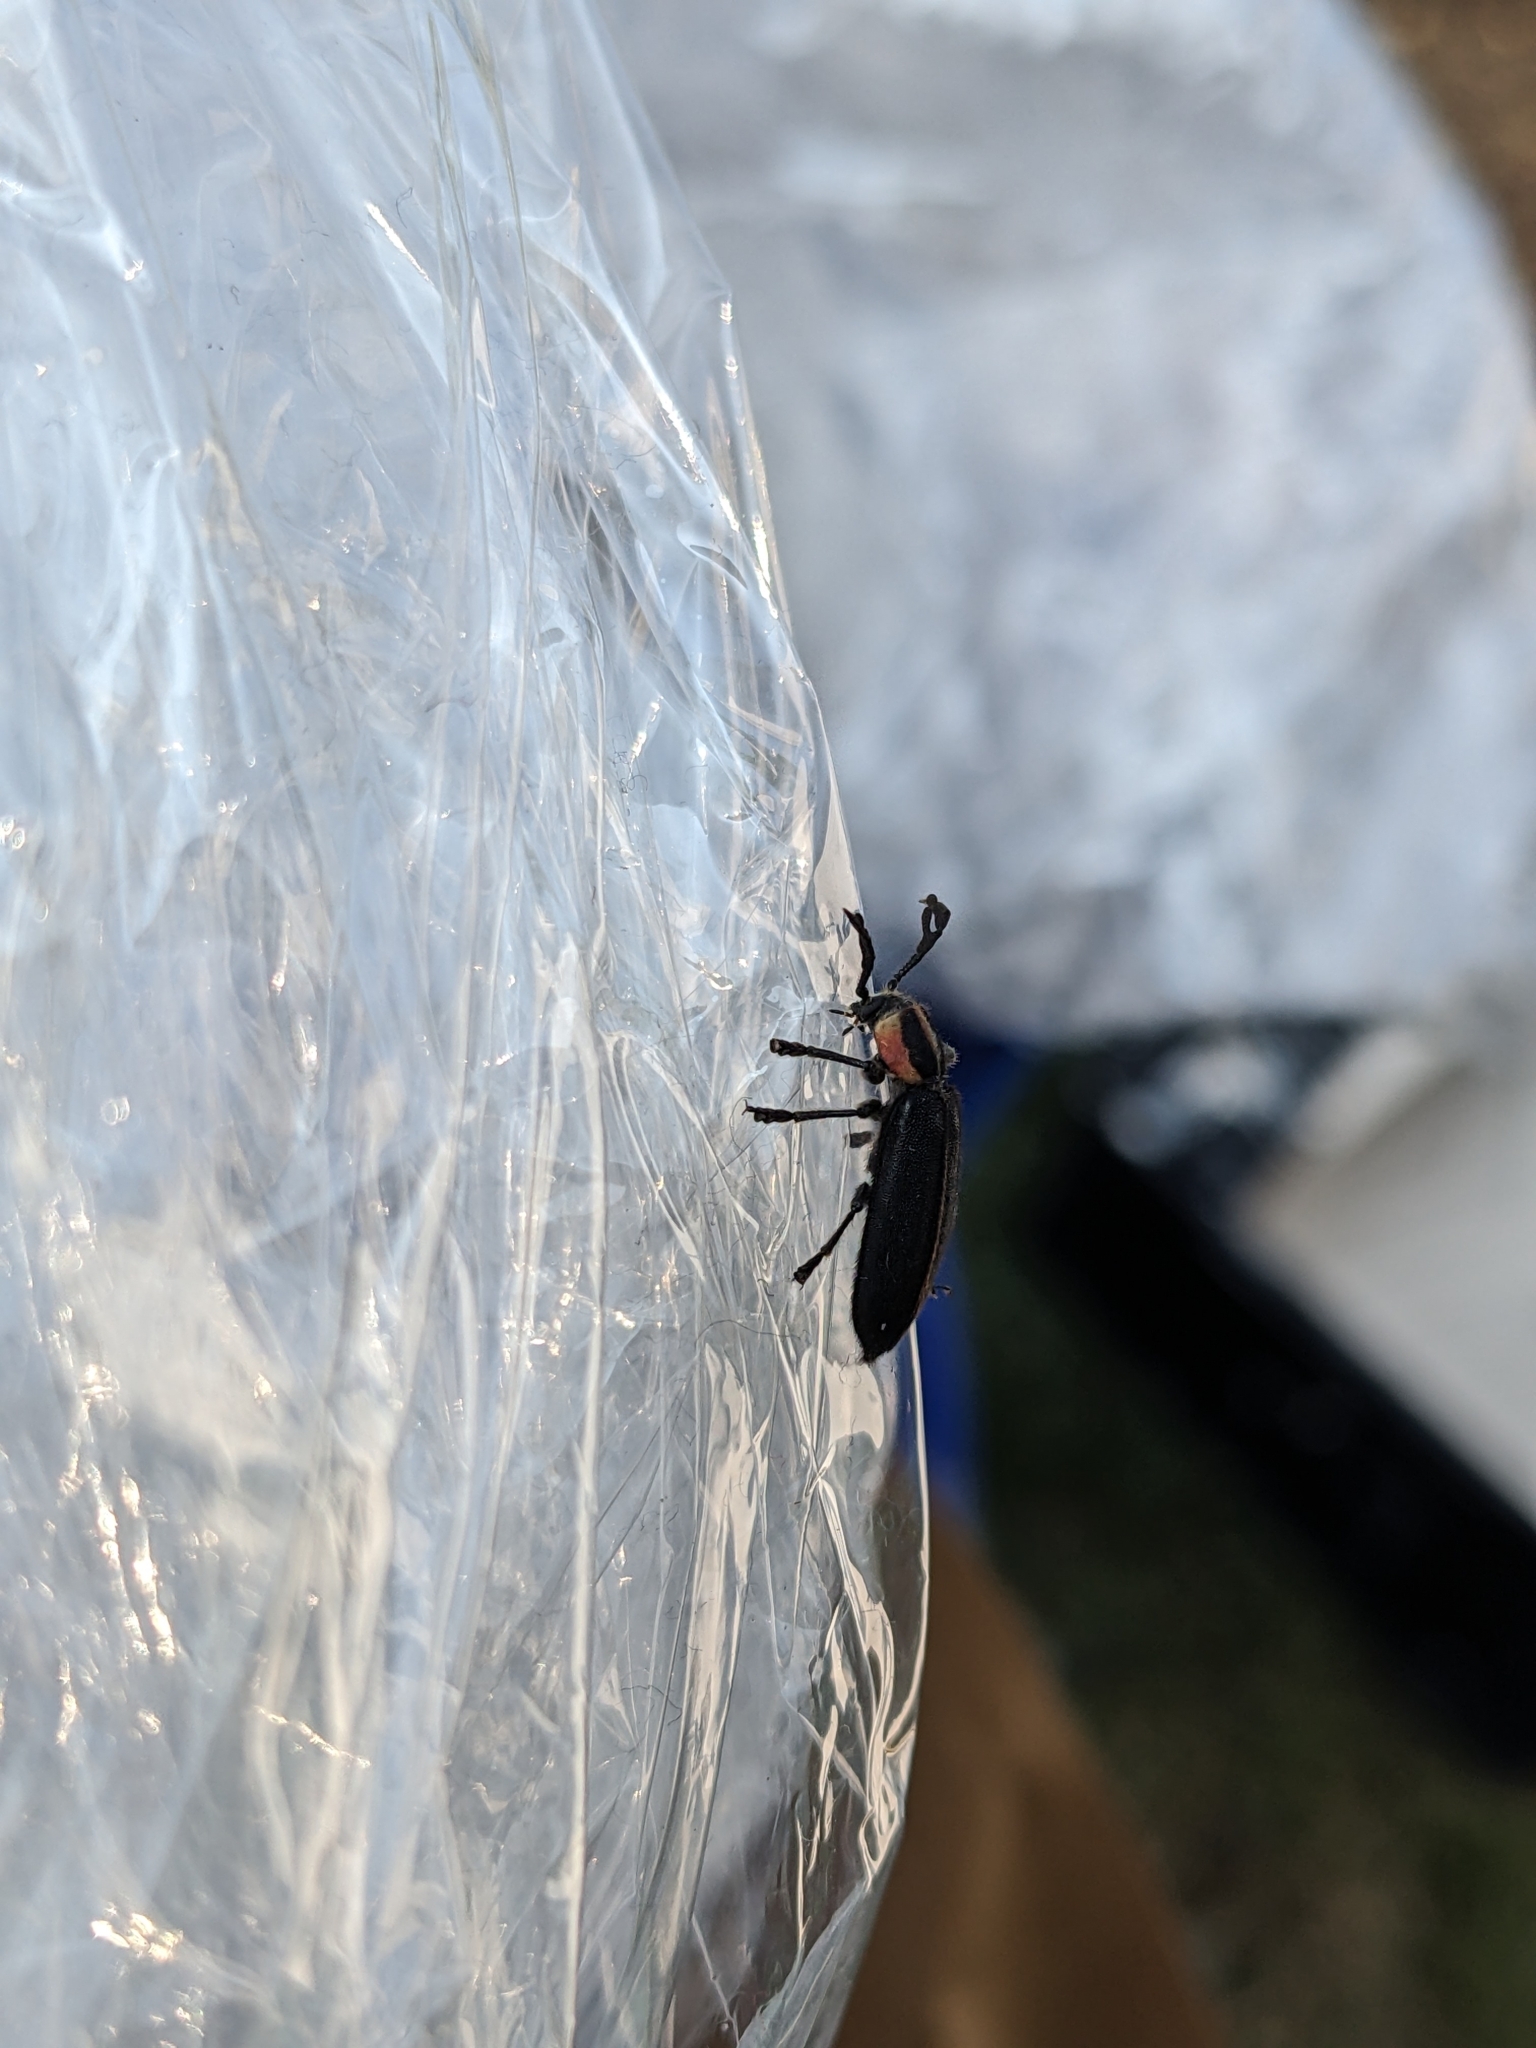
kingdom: Animalia
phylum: Arthropoda
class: Insecta
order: Coleoptera
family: Cleridae
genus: Chariessa
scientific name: Chariessa pilosa
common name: Pilose checkered beetle
